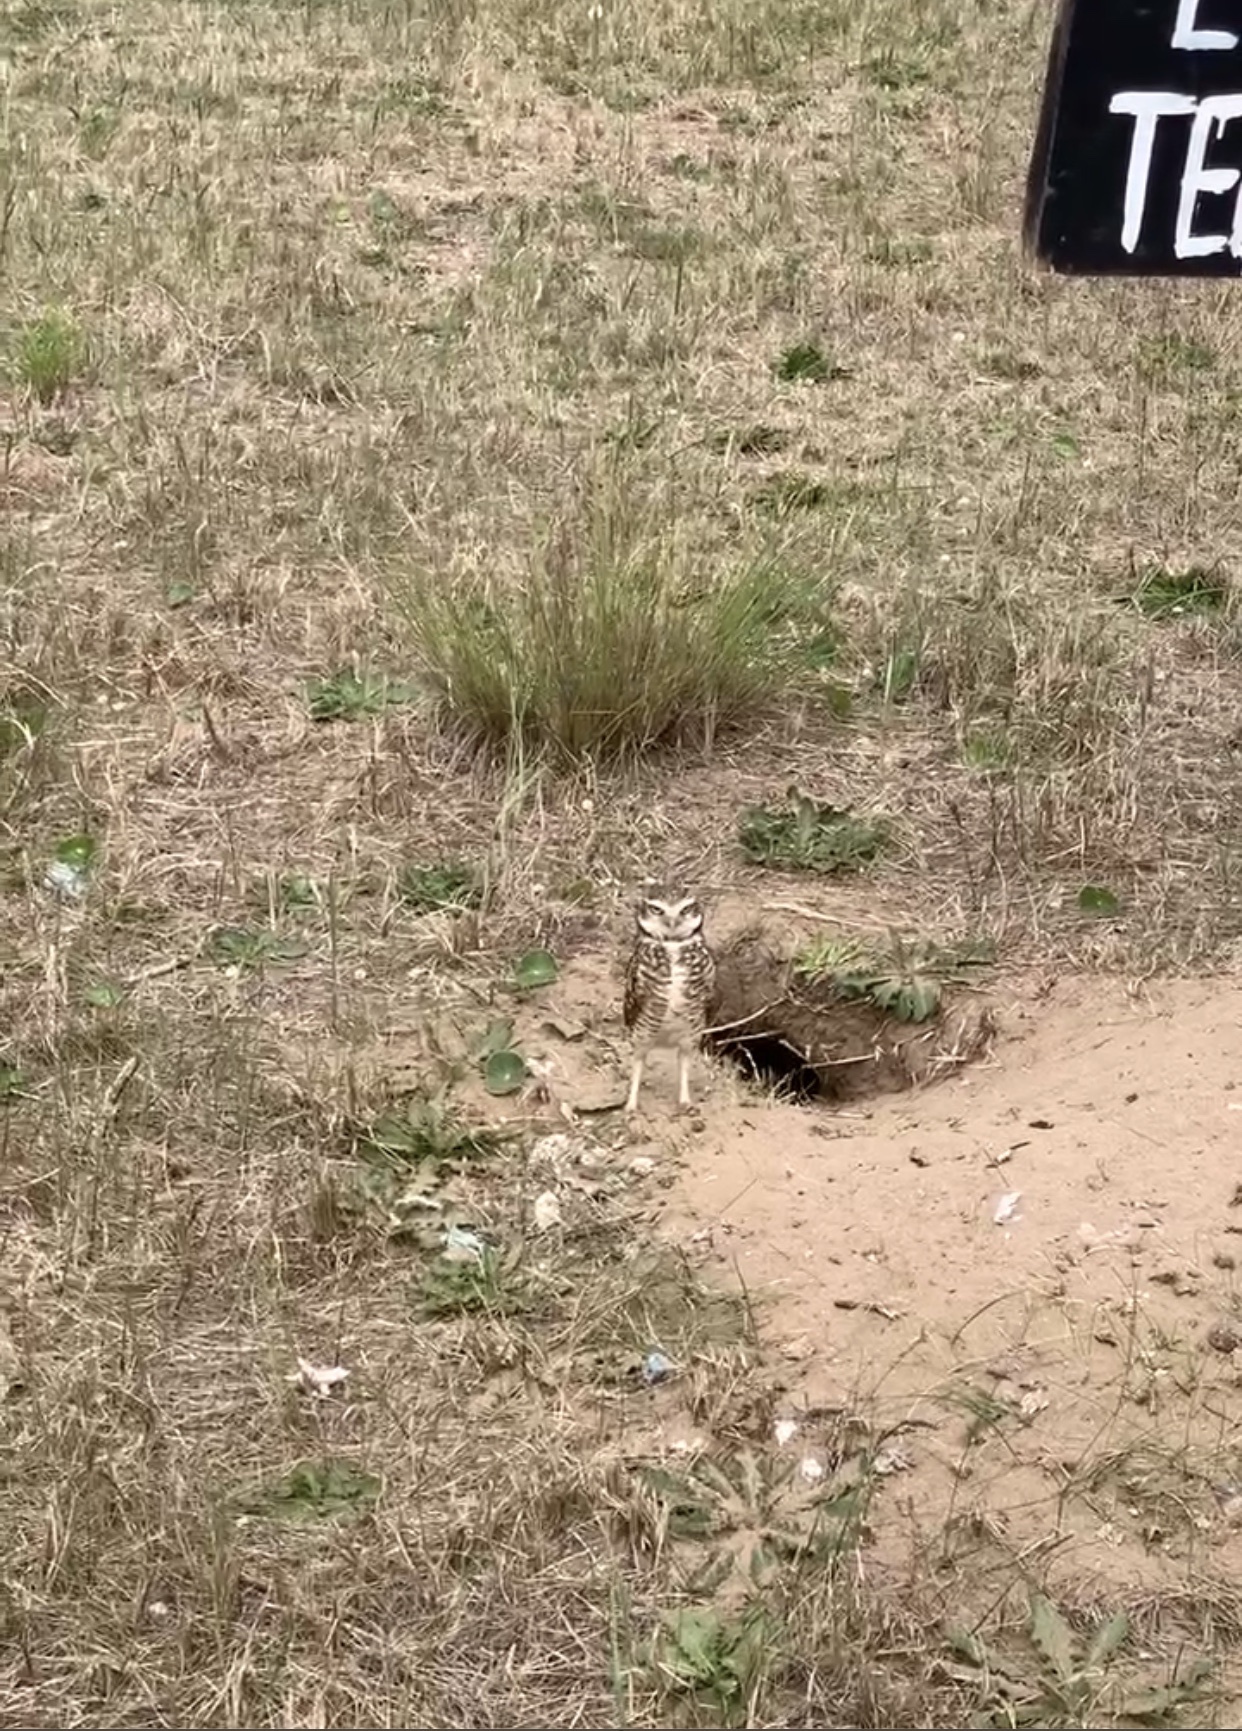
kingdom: Animalia
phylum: Chordata
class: Aves
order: Strigiformes
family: Strigidae
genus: Athene
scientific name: Athene cunicularia
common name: Burrowing owl
